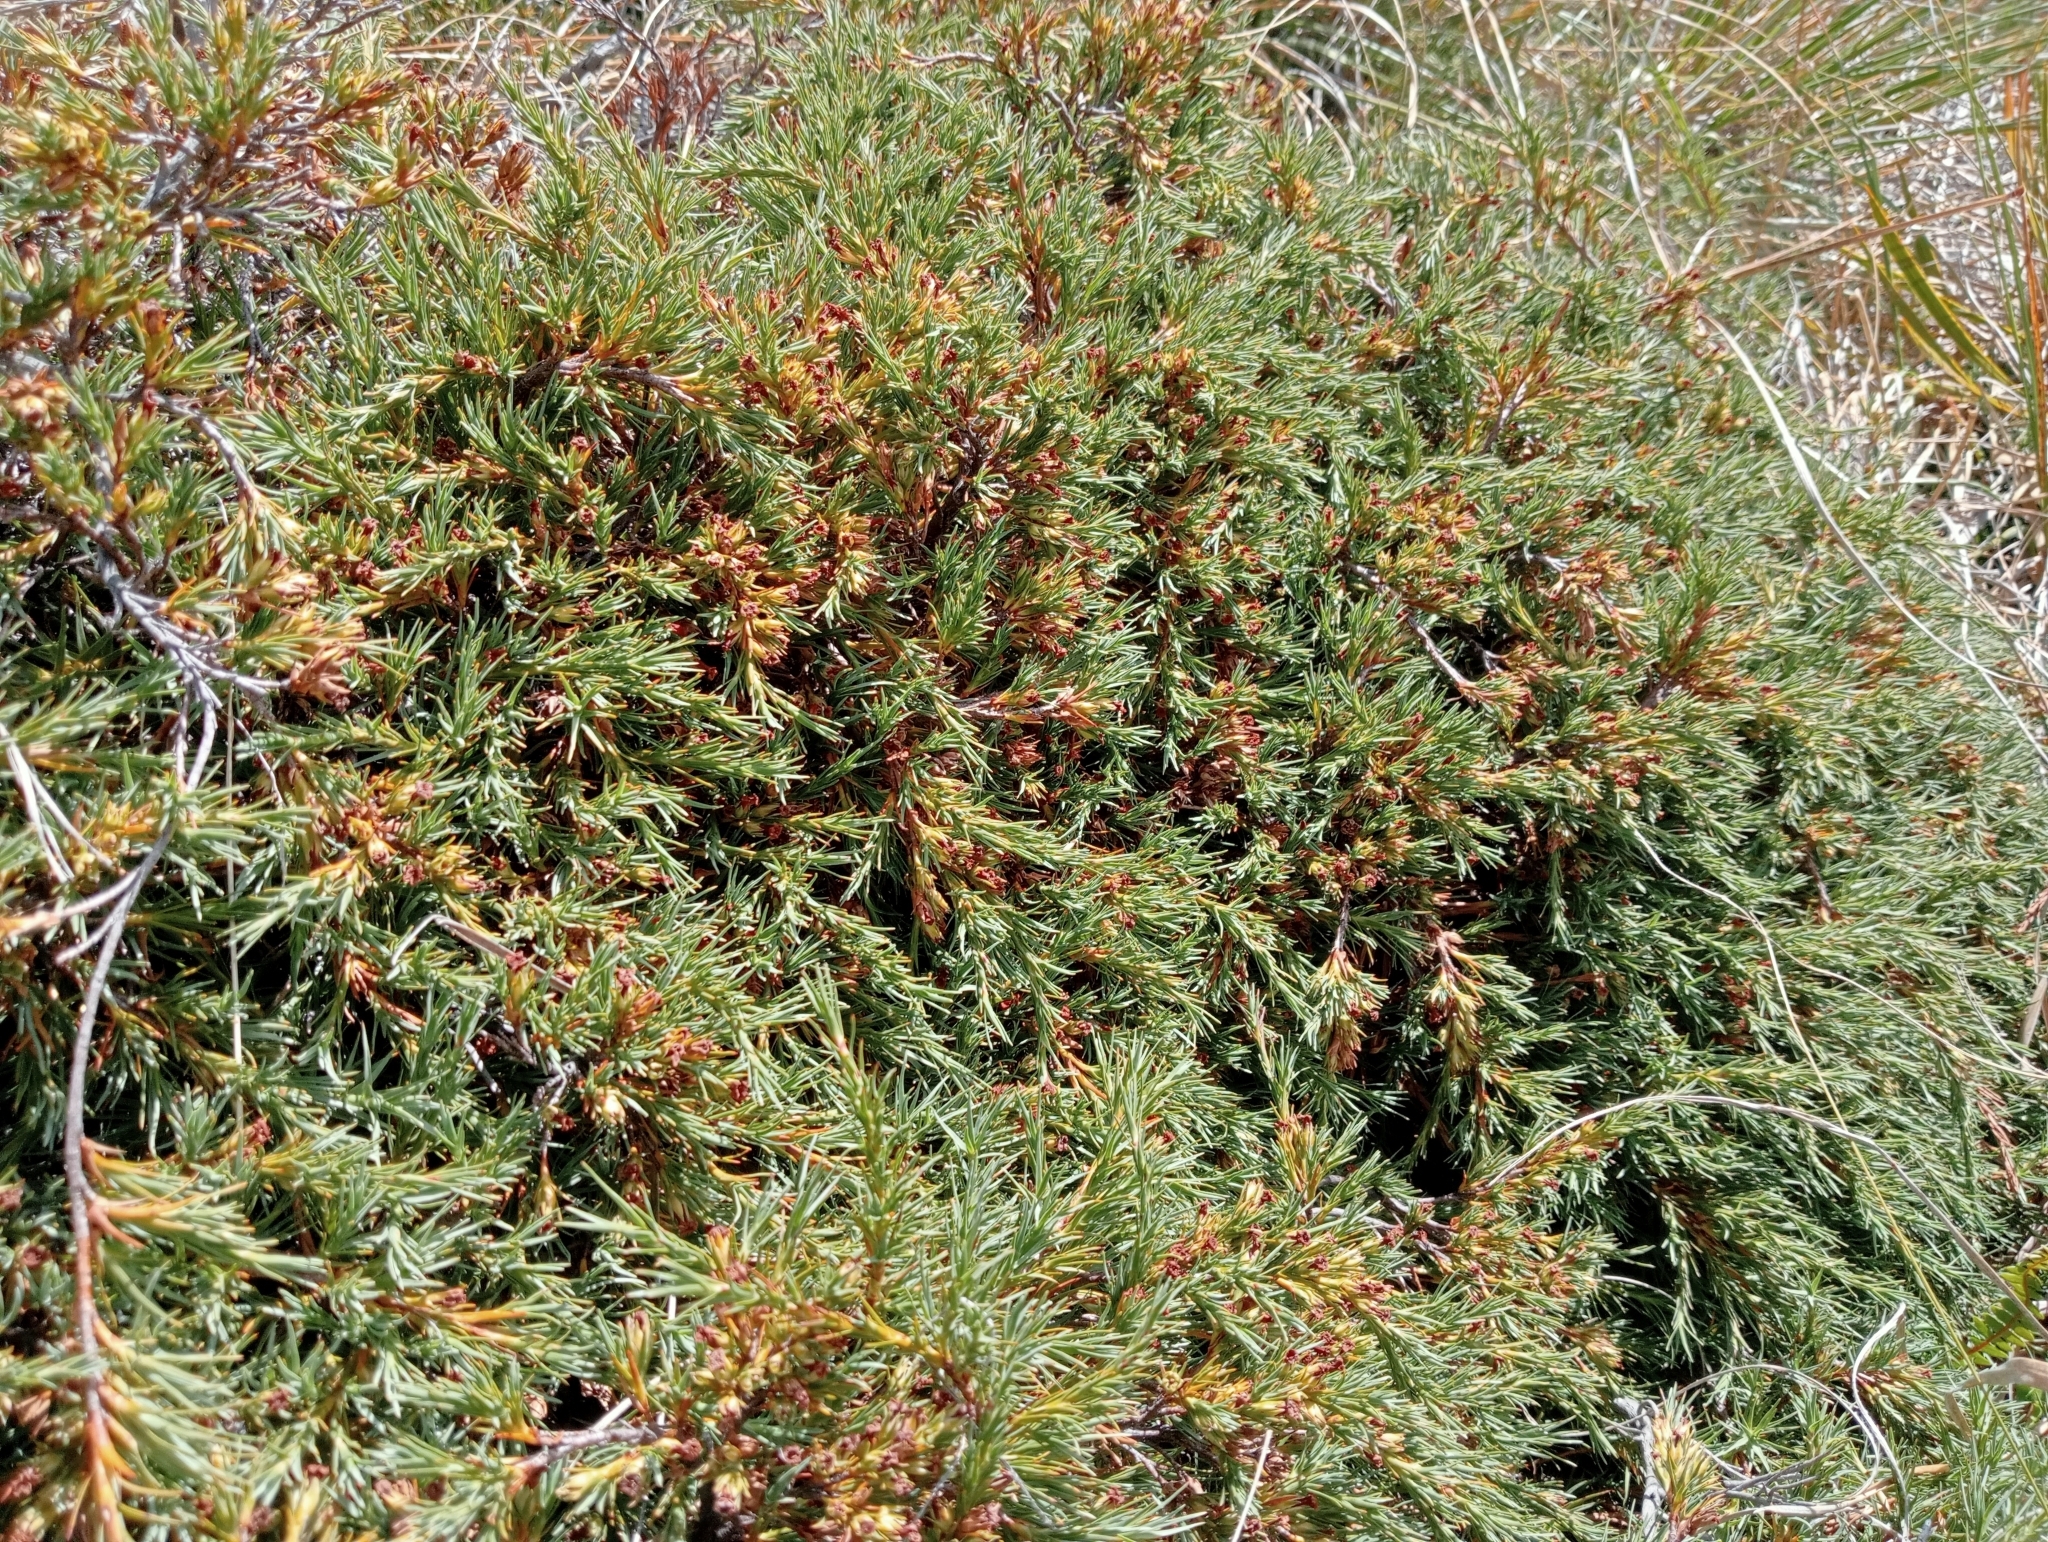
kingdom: Plantae
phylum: Tracheophyta
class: Magnoliopsida
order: Ericales
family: Ericaceae
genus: Dracophyllum
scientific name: Dracophyllum kirkii
